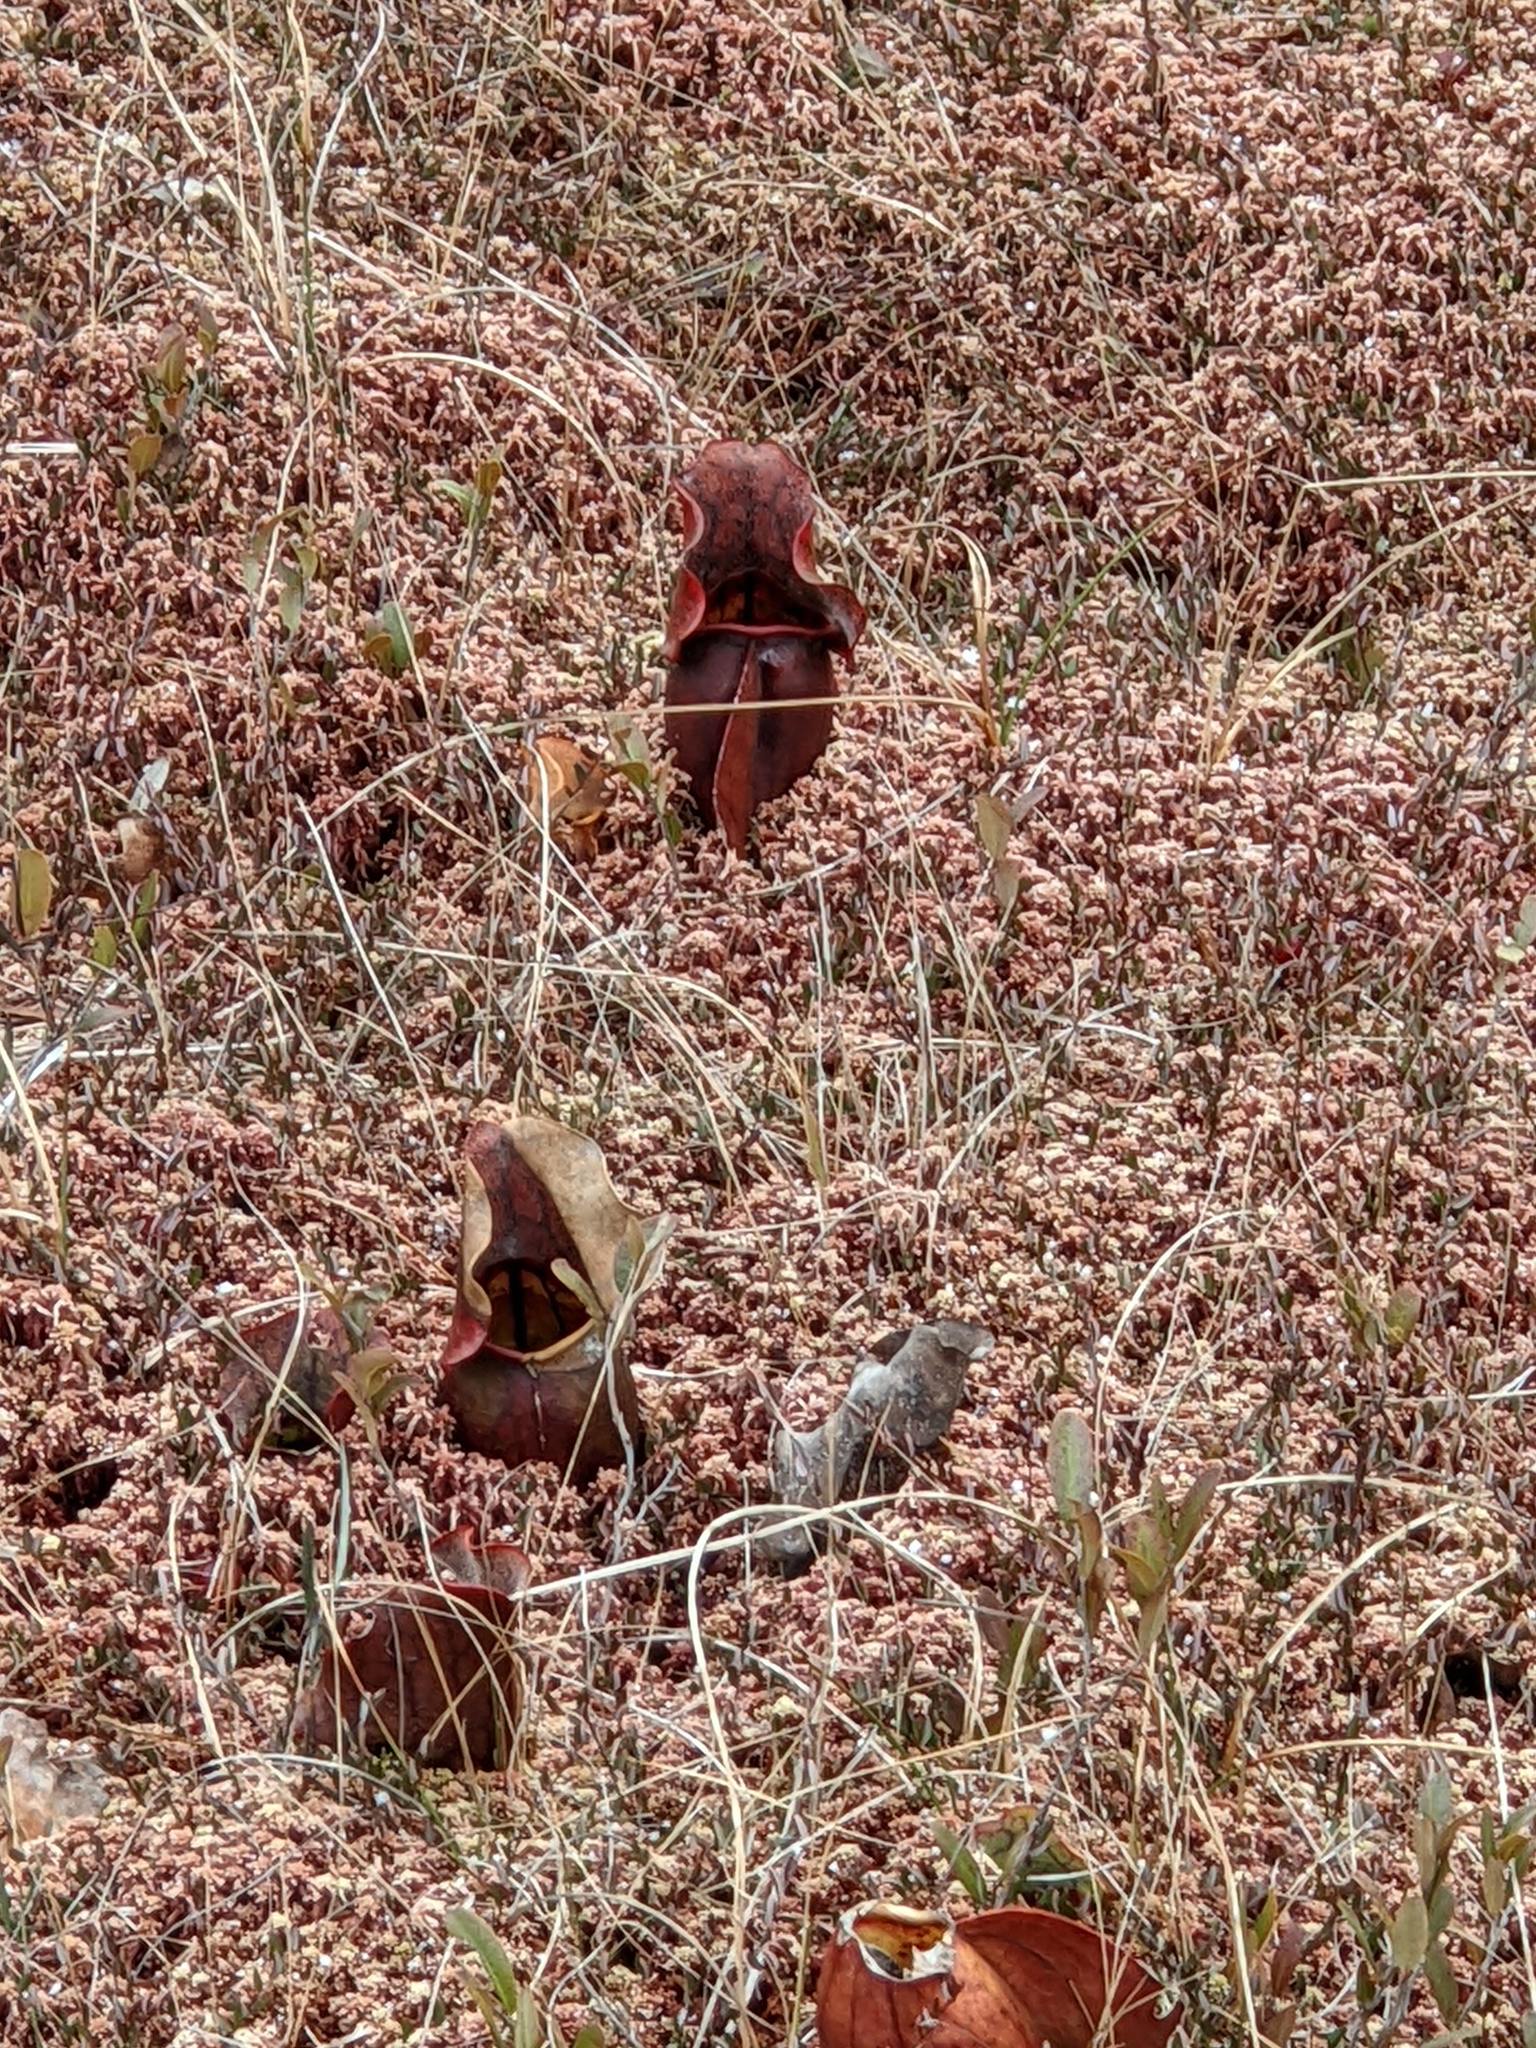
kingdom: Plantae
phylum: Tracheophyta
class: Magnoliopsida
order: Ericales
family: Sarraceniaceae
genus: Sarracenia
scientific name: Sarracenia purpurea
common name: Pitcherplant
